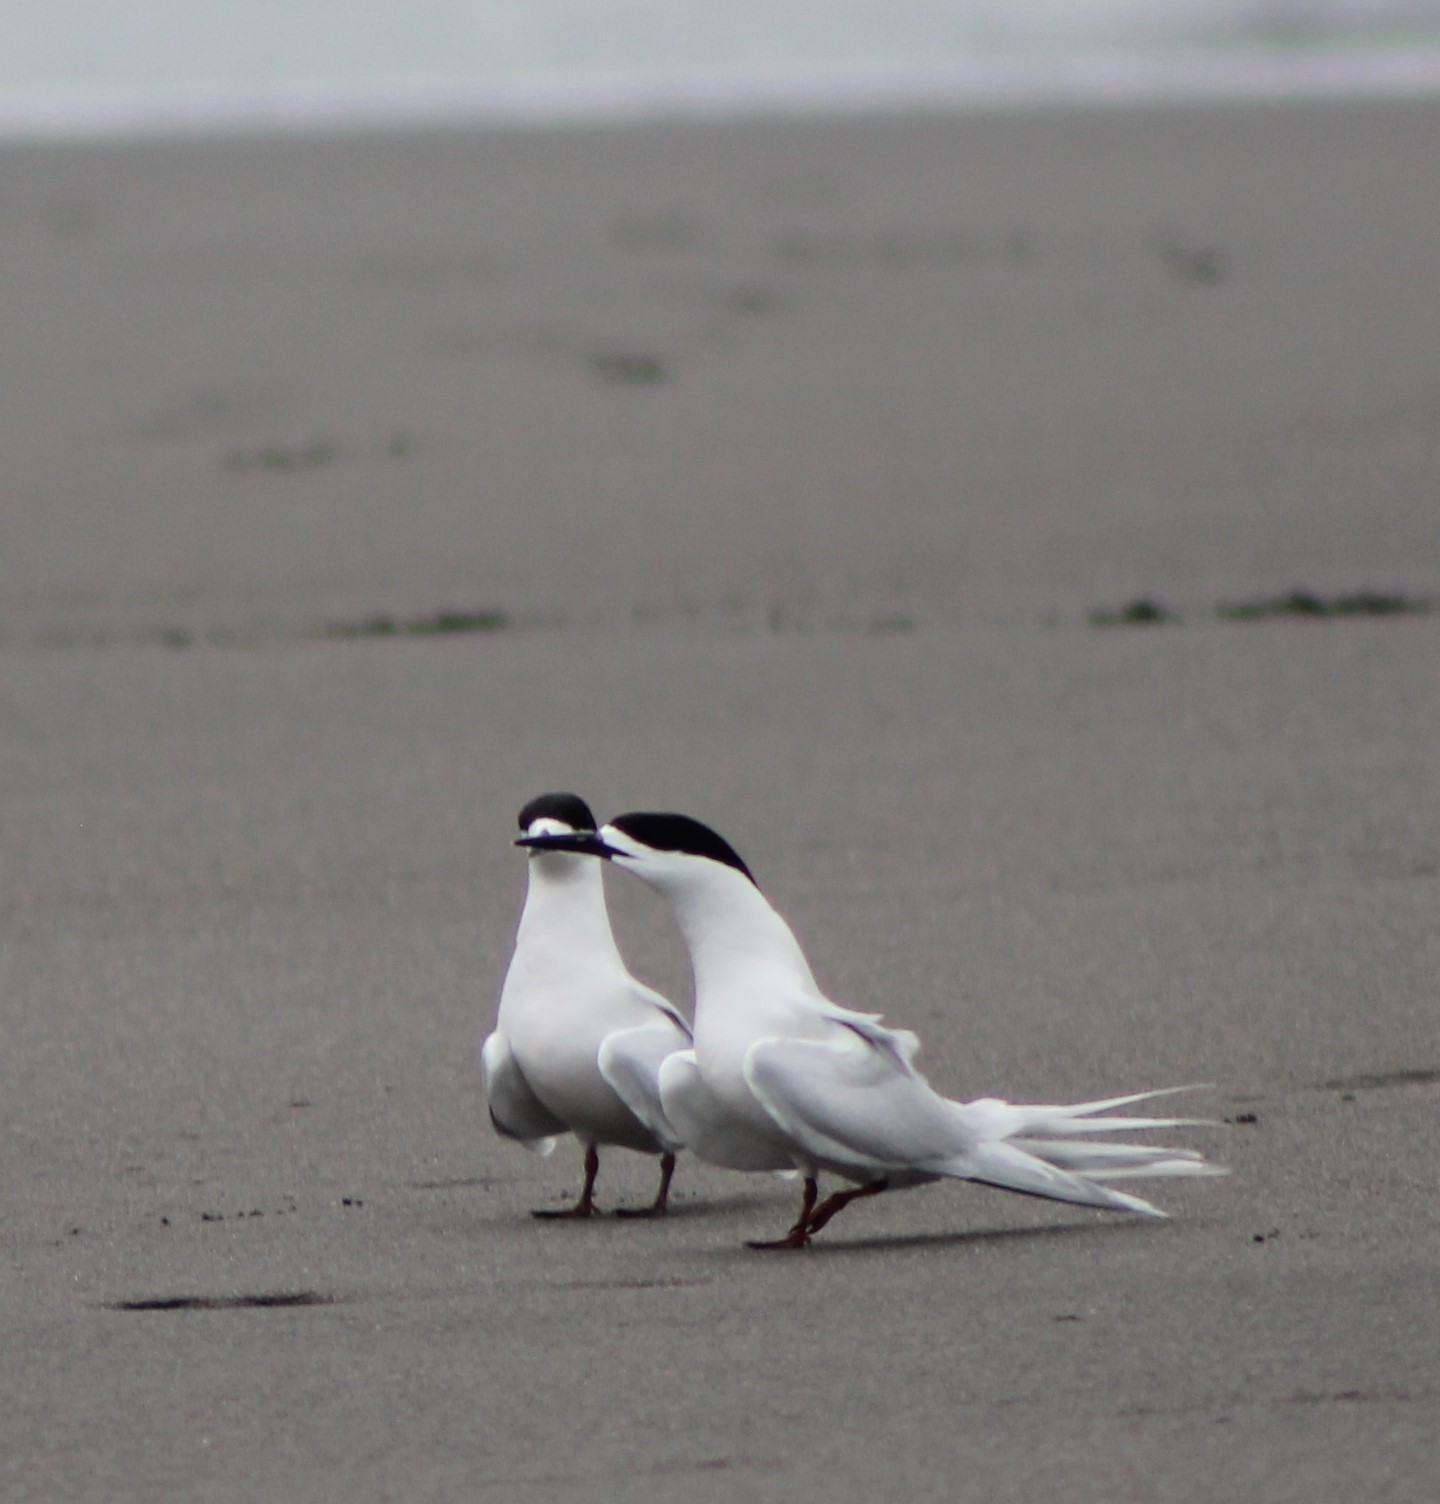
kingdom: Animalia
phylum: Chordata
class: Aves
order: Charadriiformes
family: Laridae
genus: Sterna
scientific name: Sterna striata
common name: White-fronted tern
